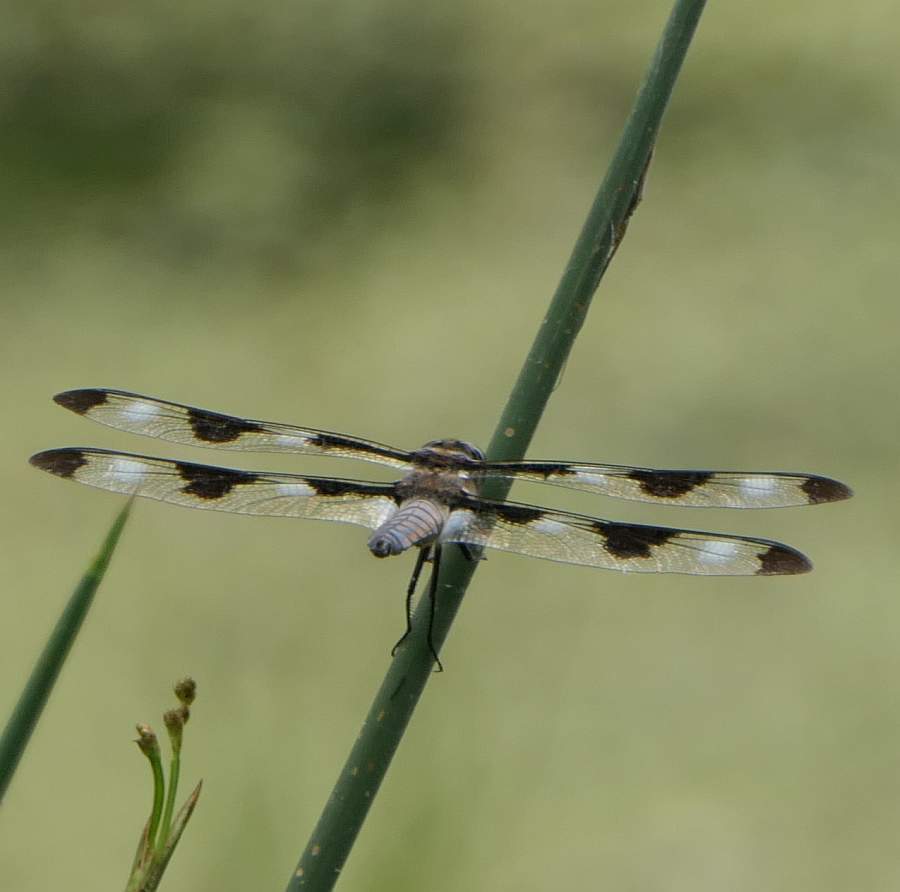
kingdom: Animalia
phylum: Arthropoda
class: Insecta
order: Odonata
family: Libellulidae
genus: Libellula
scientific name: Libellula pulchella
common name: Twelve-spotted skimmer
